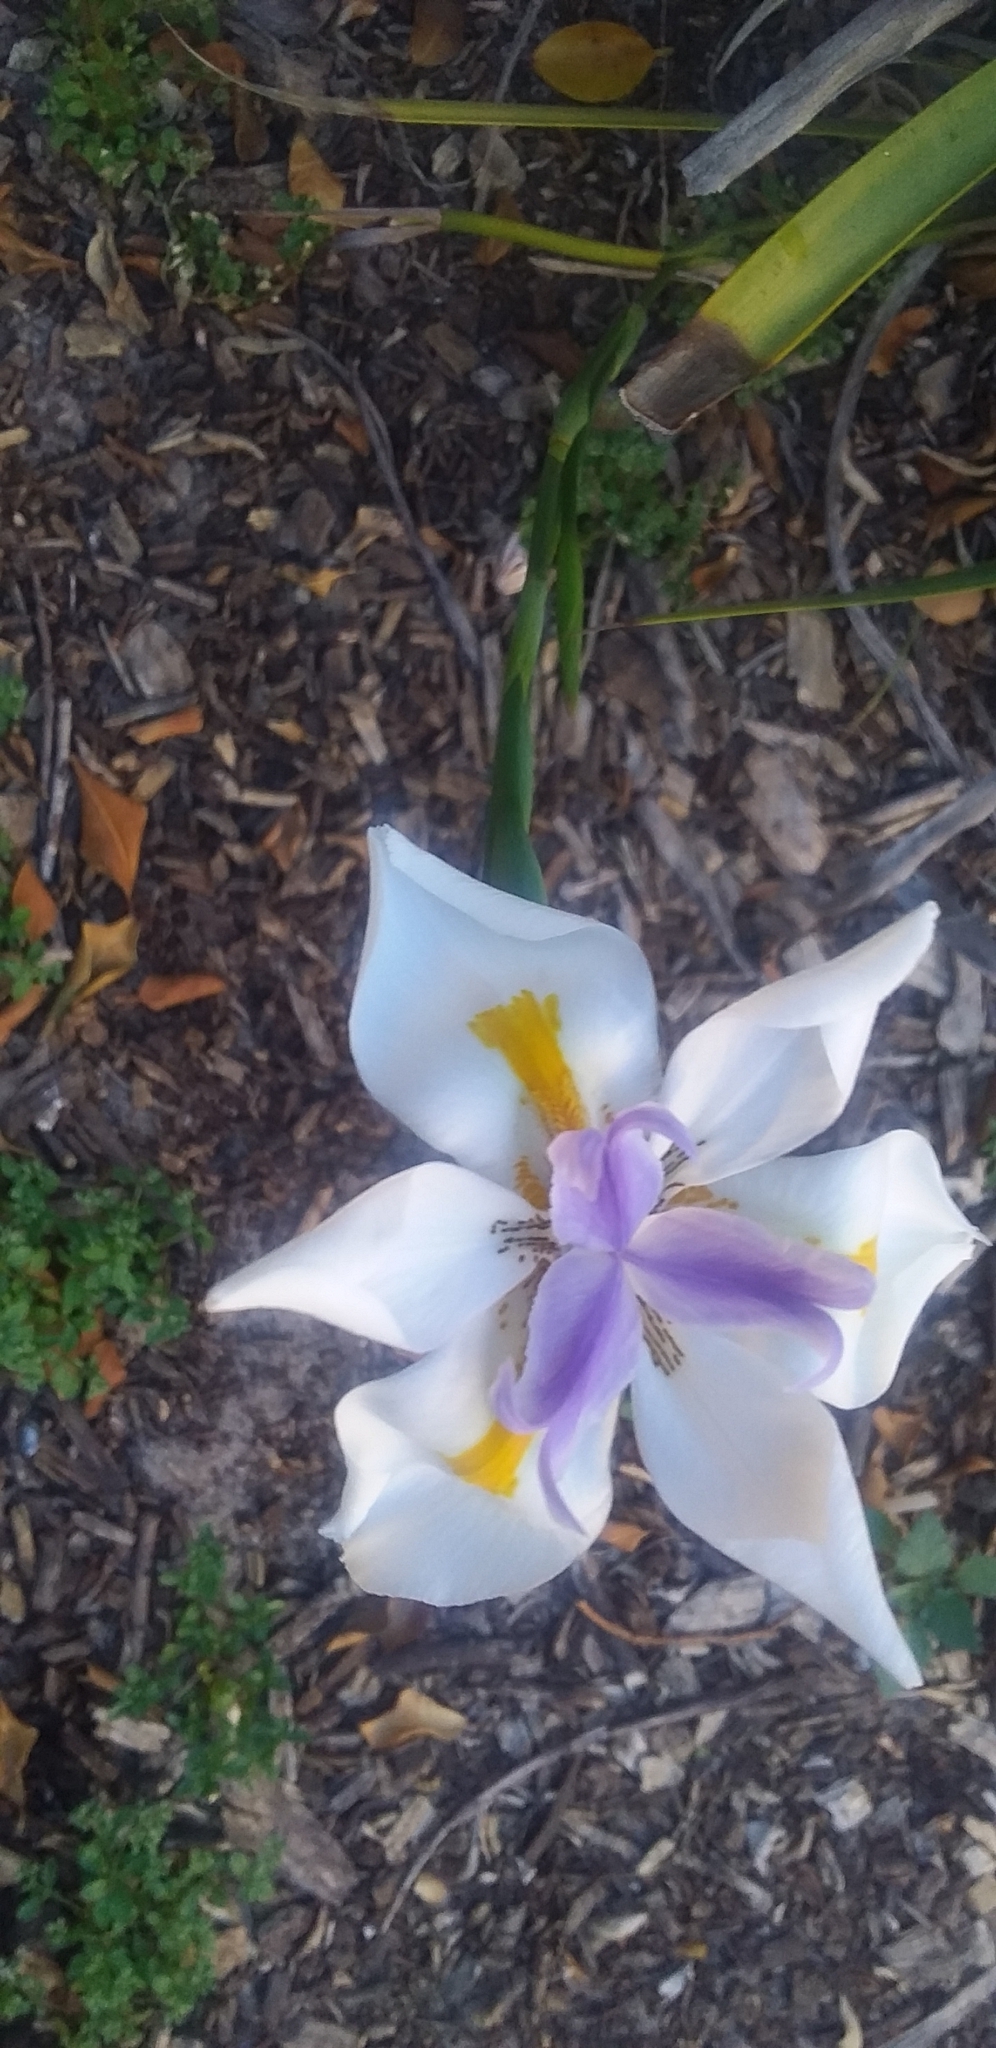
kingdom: Plantae
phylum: Tracheophyta
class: Liliopsida
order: Asparagales
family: Iridaceae
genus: Dietes
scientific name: Dietes grandiflora
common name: Wild iris
